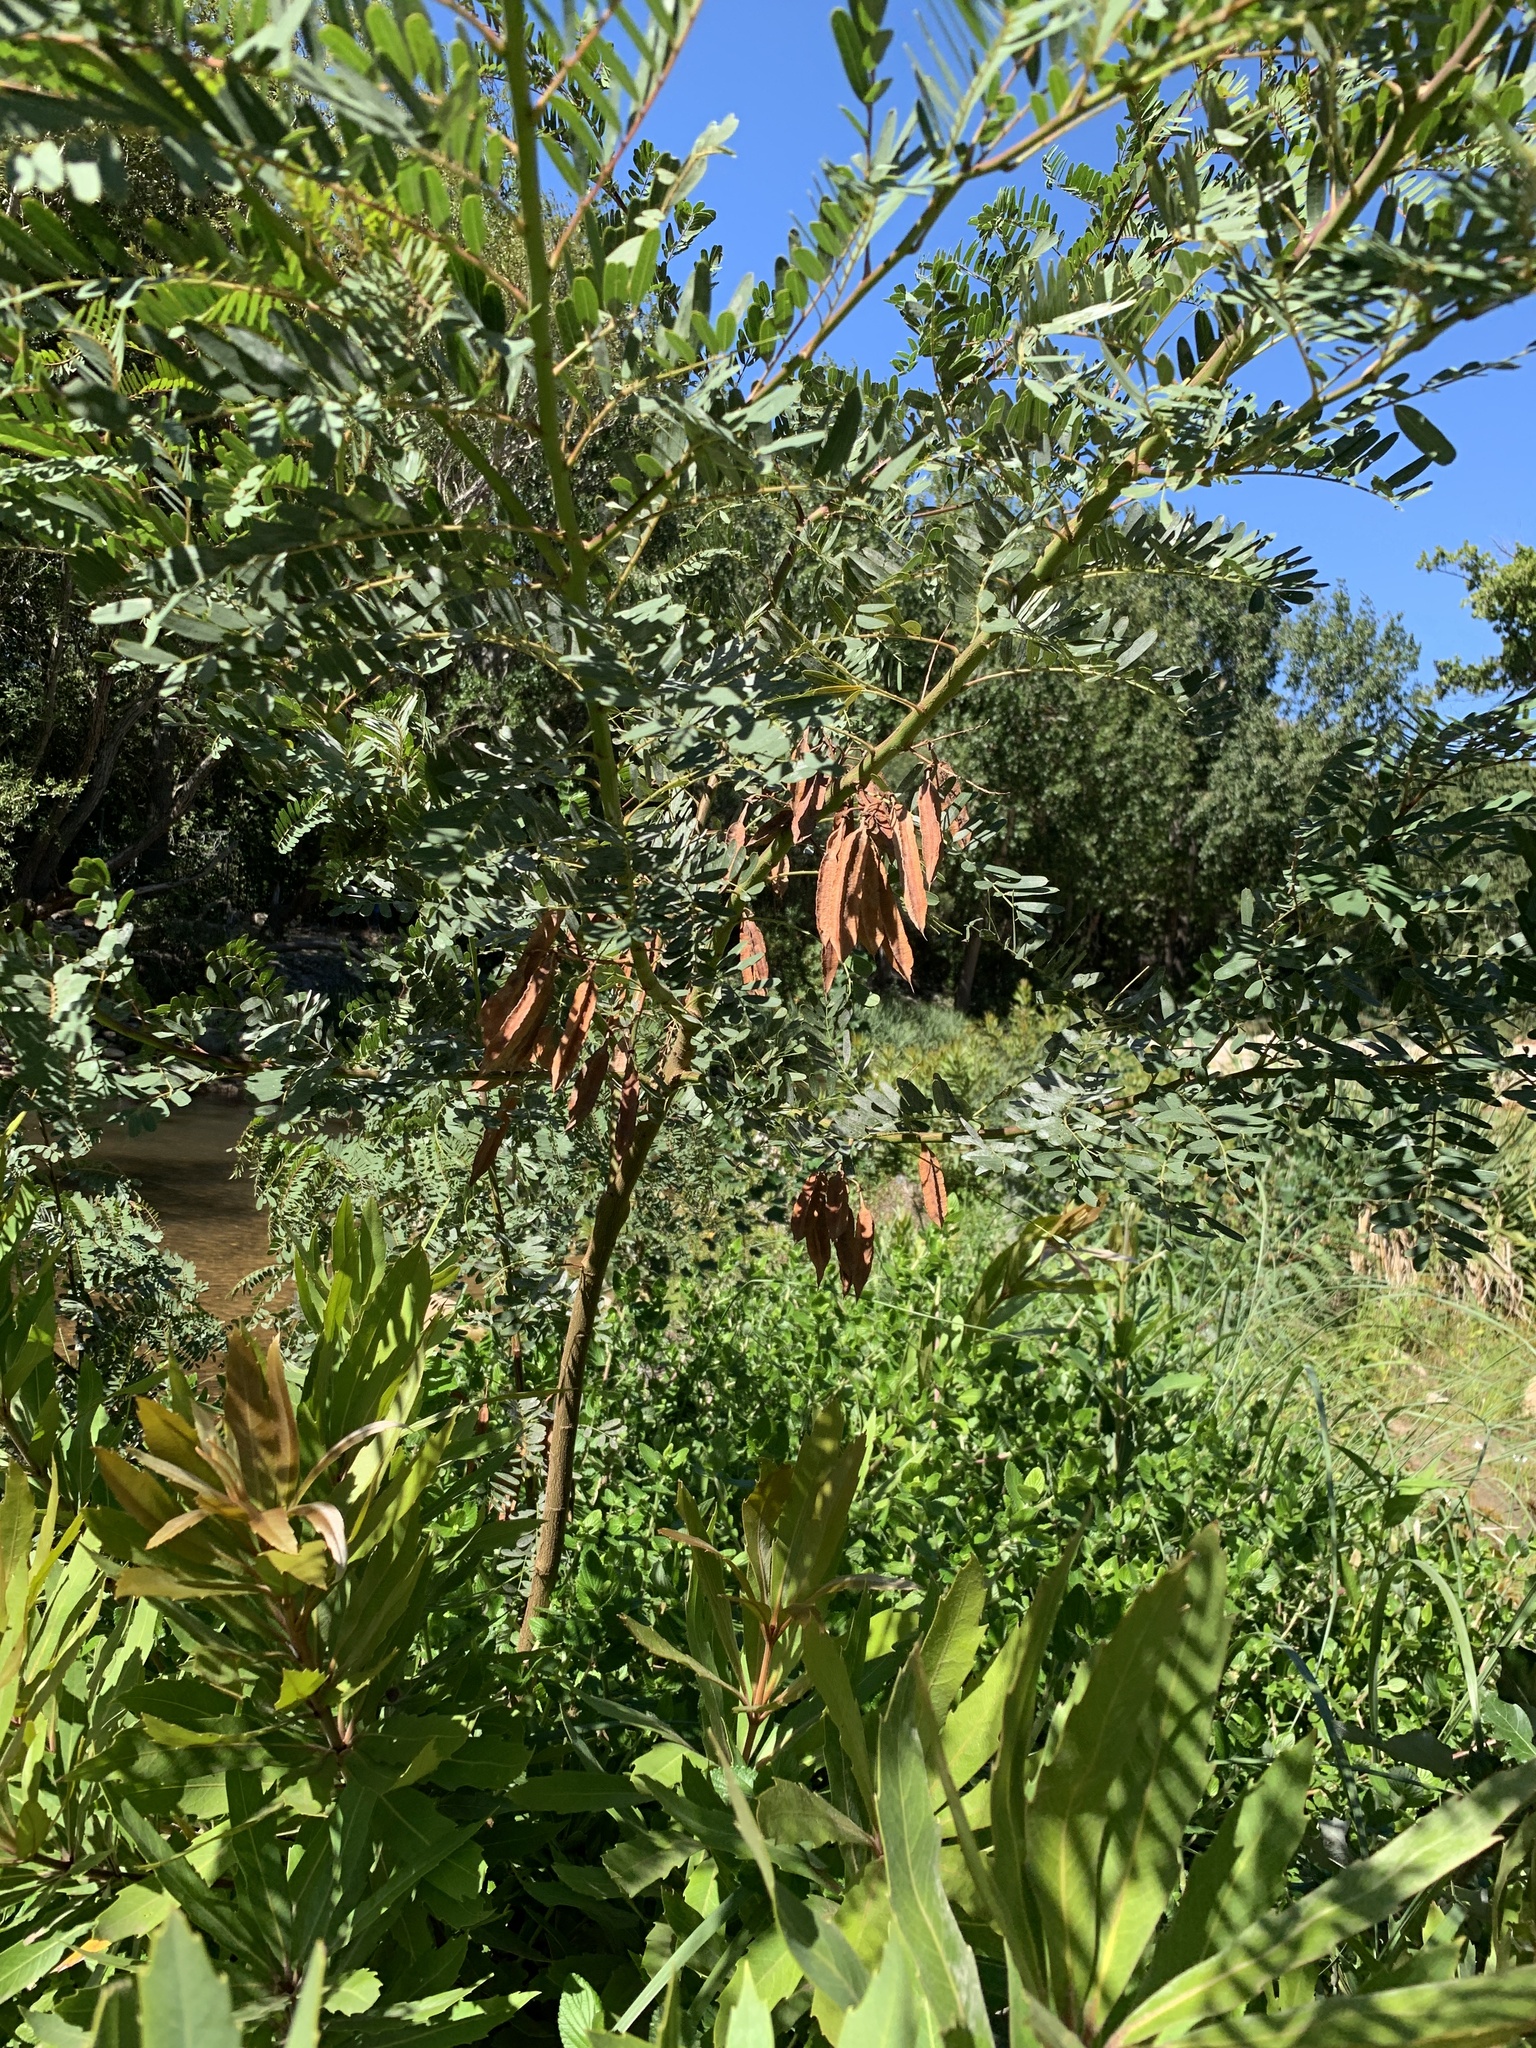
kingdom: Plantae
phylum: Tracheophyta
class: Magnoliopsida
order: Fabales
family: Fabaceae
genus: Sesbania
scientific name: Sesbania punicea
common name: Rattlebox
